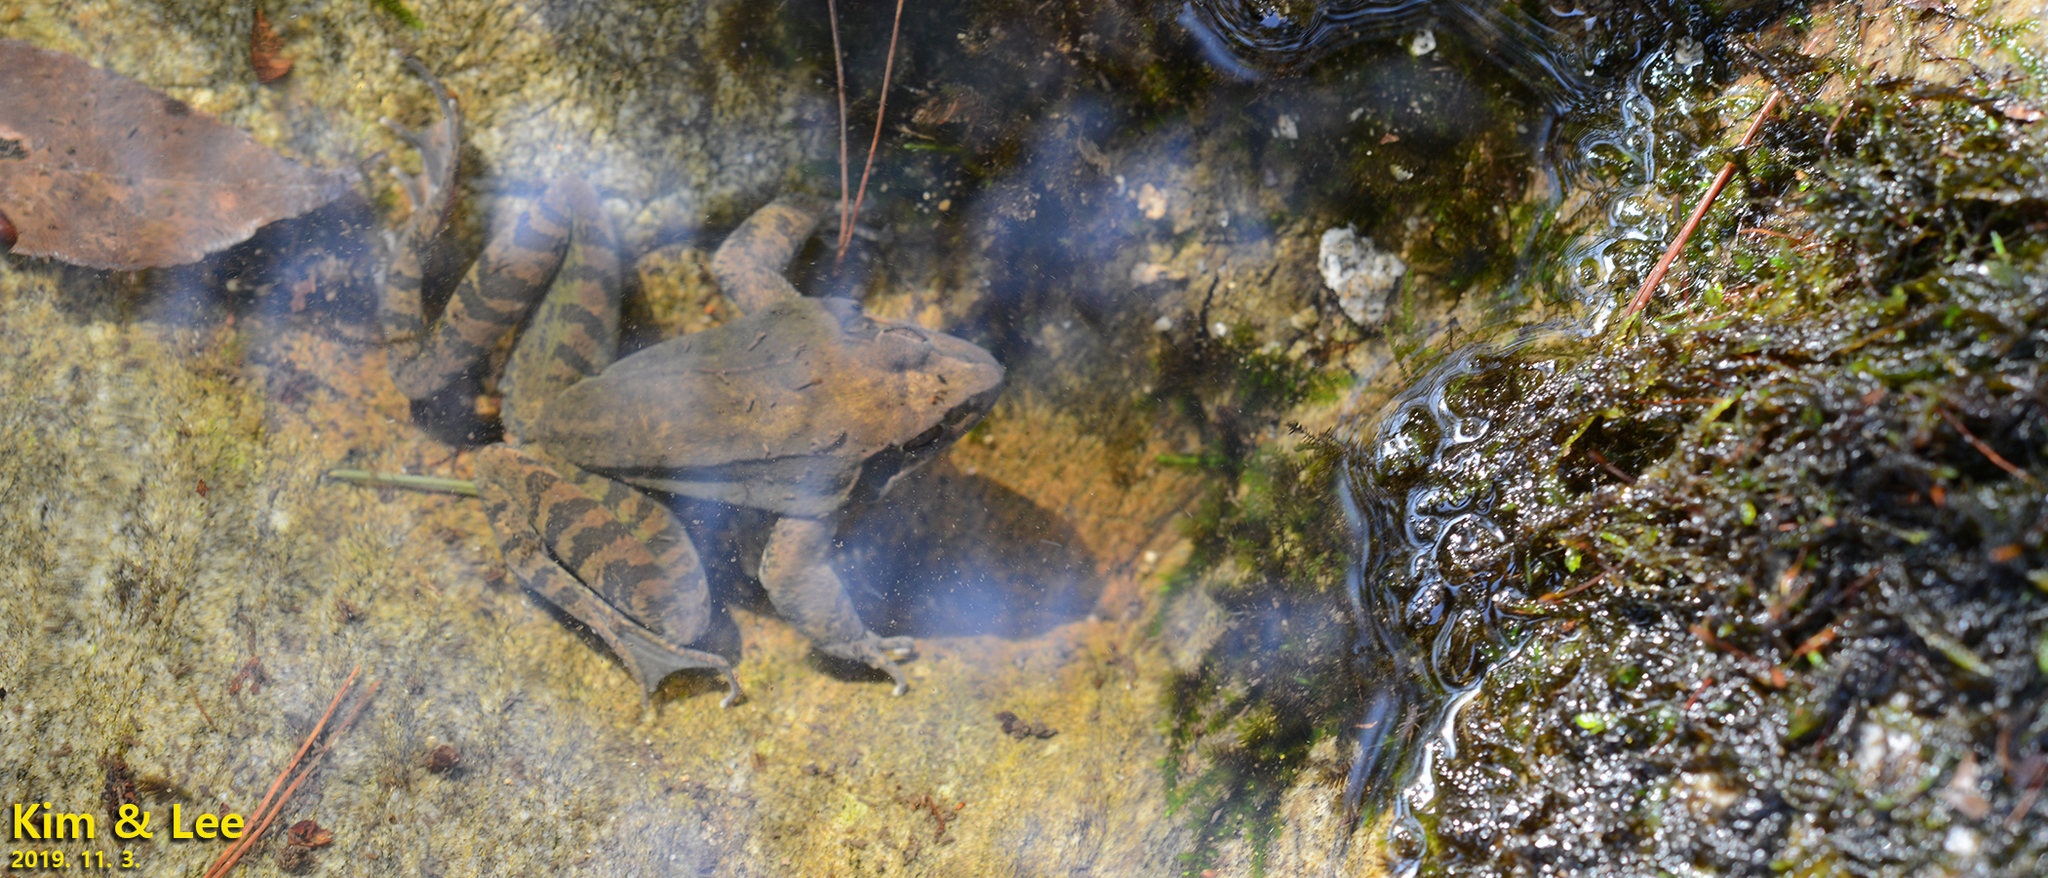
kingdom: Animalia
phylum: Chordata
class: Amphibia
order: Anura
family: Ranidae
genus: Rana
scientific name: Rana uenoi
